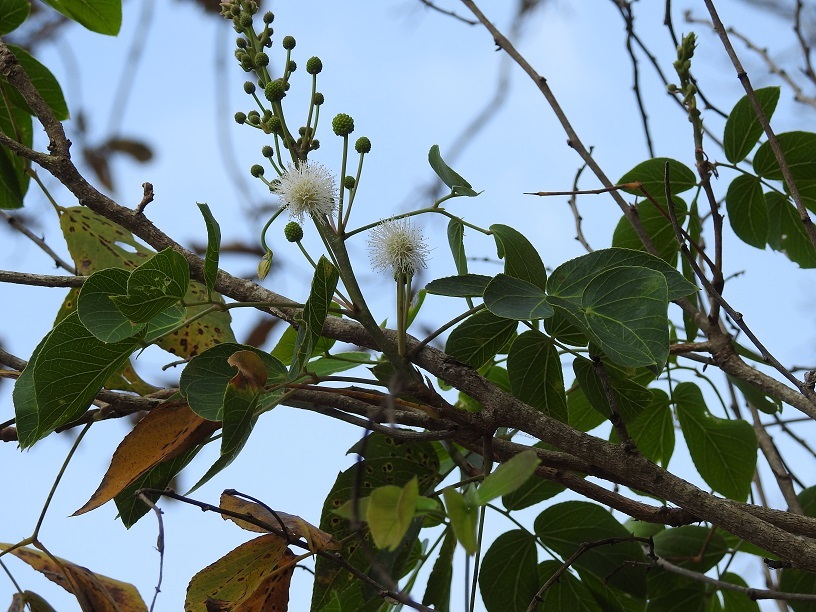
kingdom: Plantae
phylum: Tracheophyta
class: Magnoliopsida
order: Fabales
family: Fabaceae
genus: Pithecellobium
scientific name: Pithecellobium dulce
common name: Monkeypod
